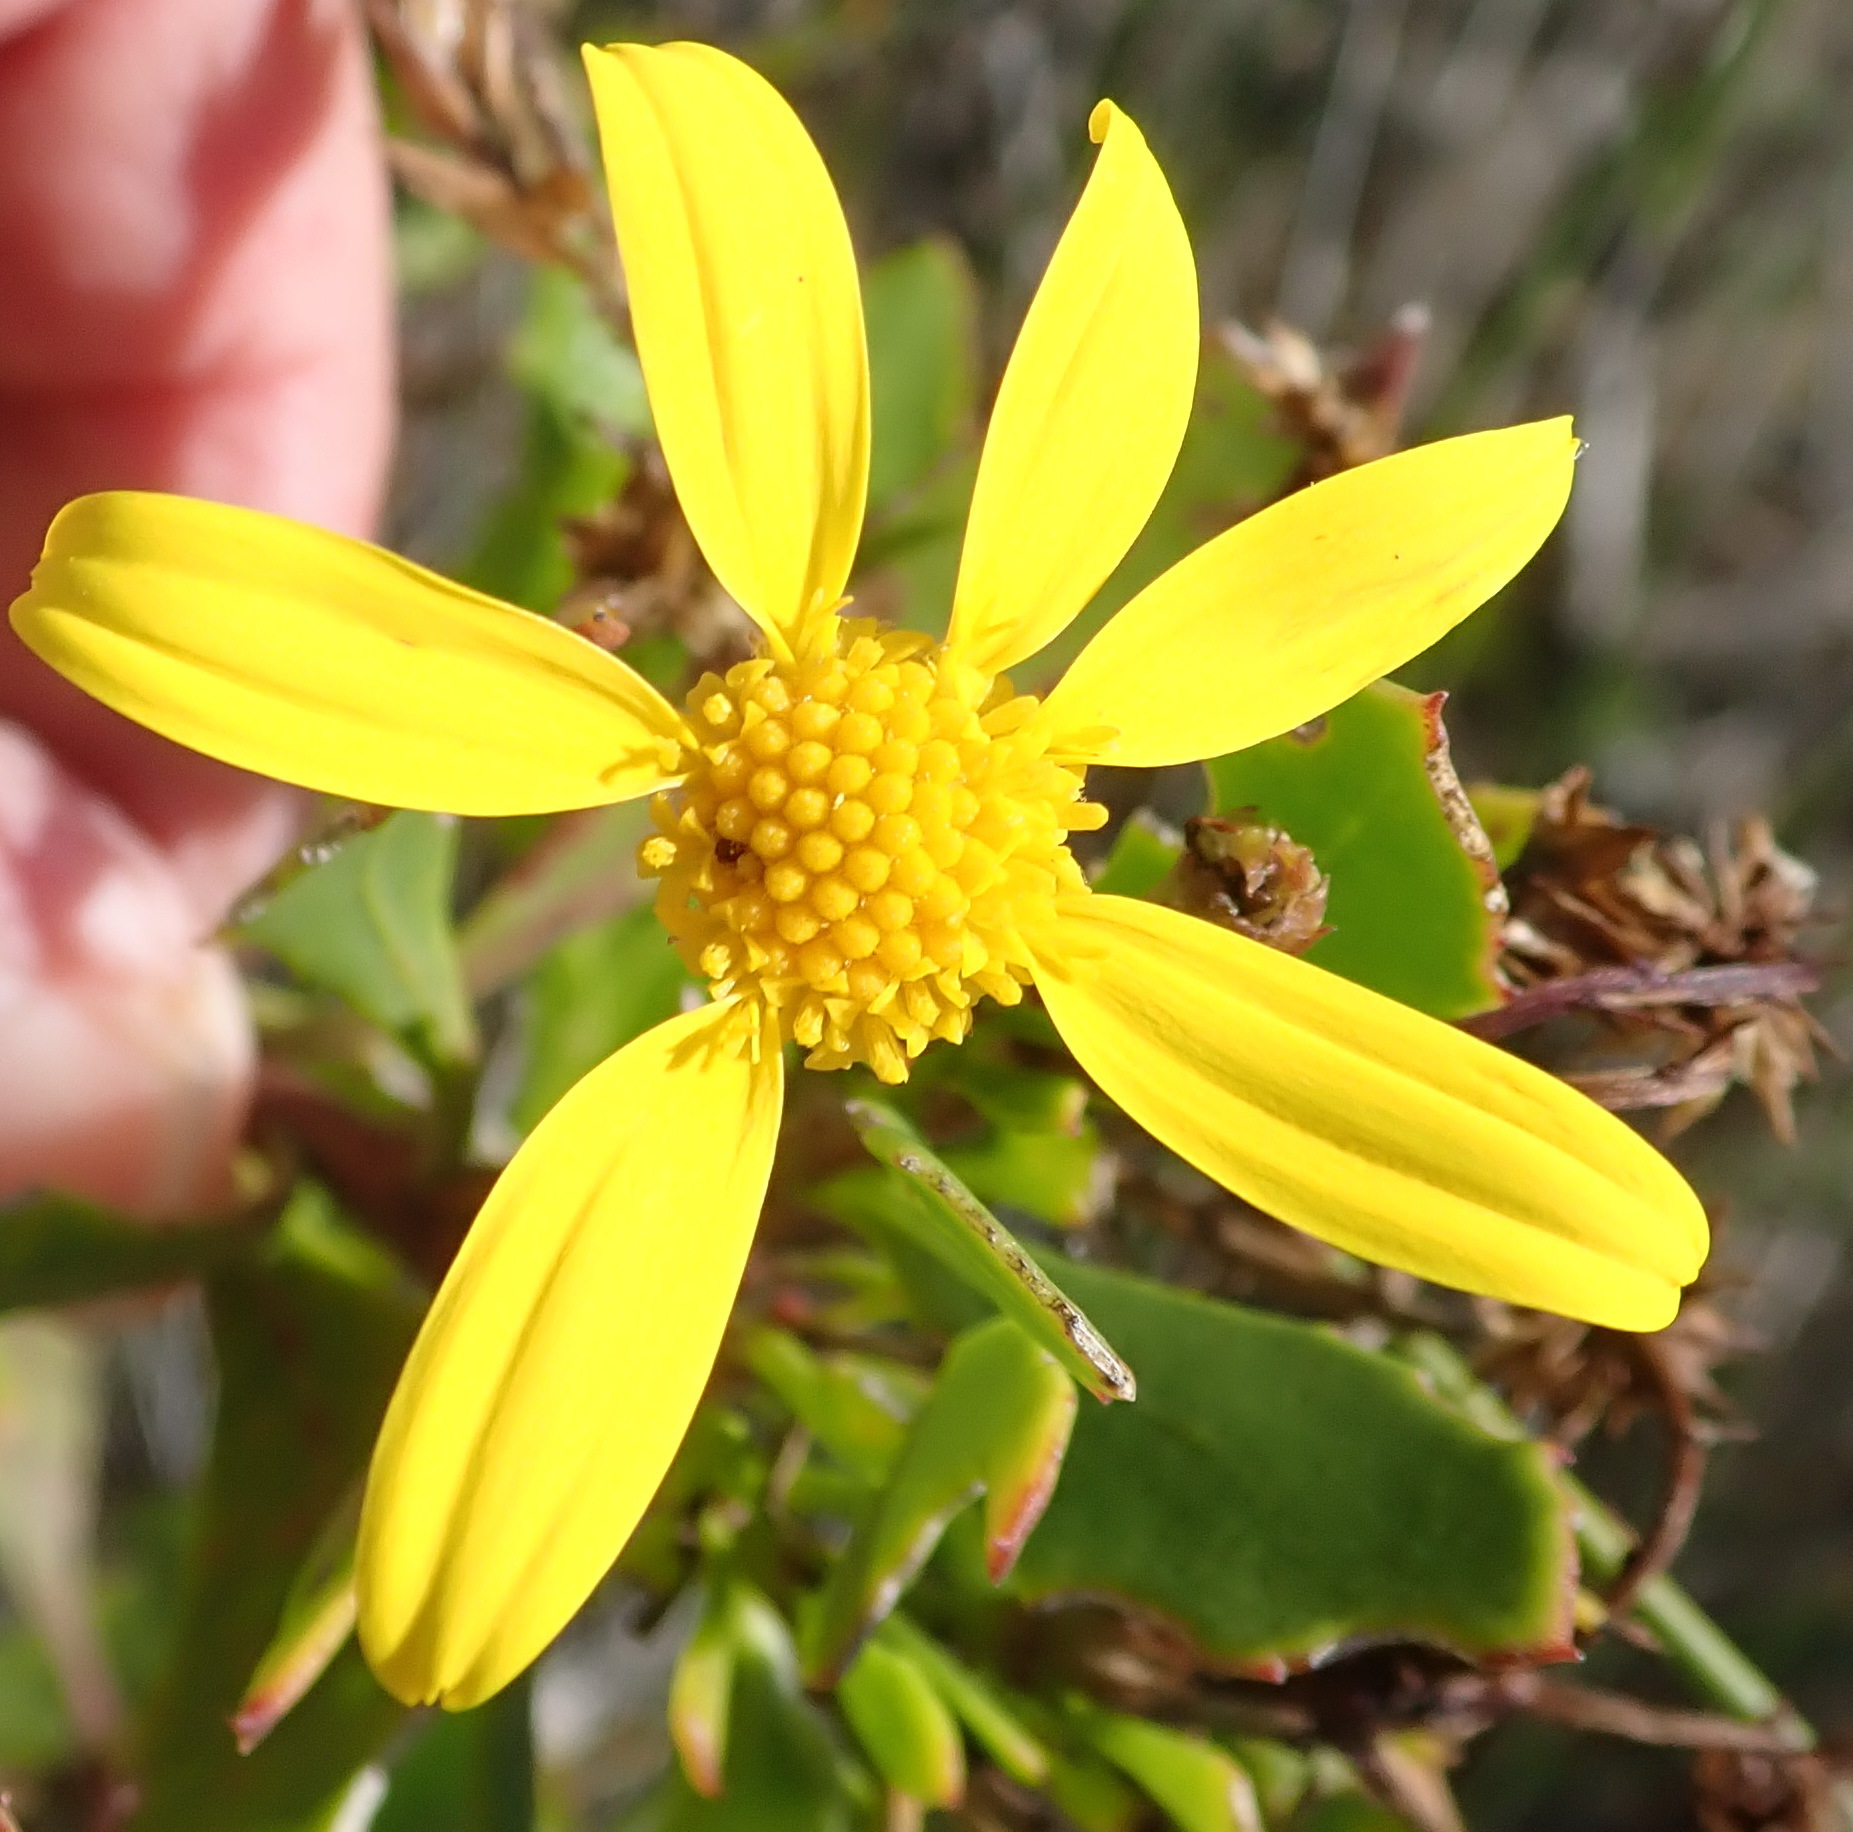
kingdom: Plantae
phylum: Tracheophyta
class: Magnoliopsida
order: Asterales
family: Asteraceae
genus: Osteospermum
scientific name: Osteospermum moniliferum
